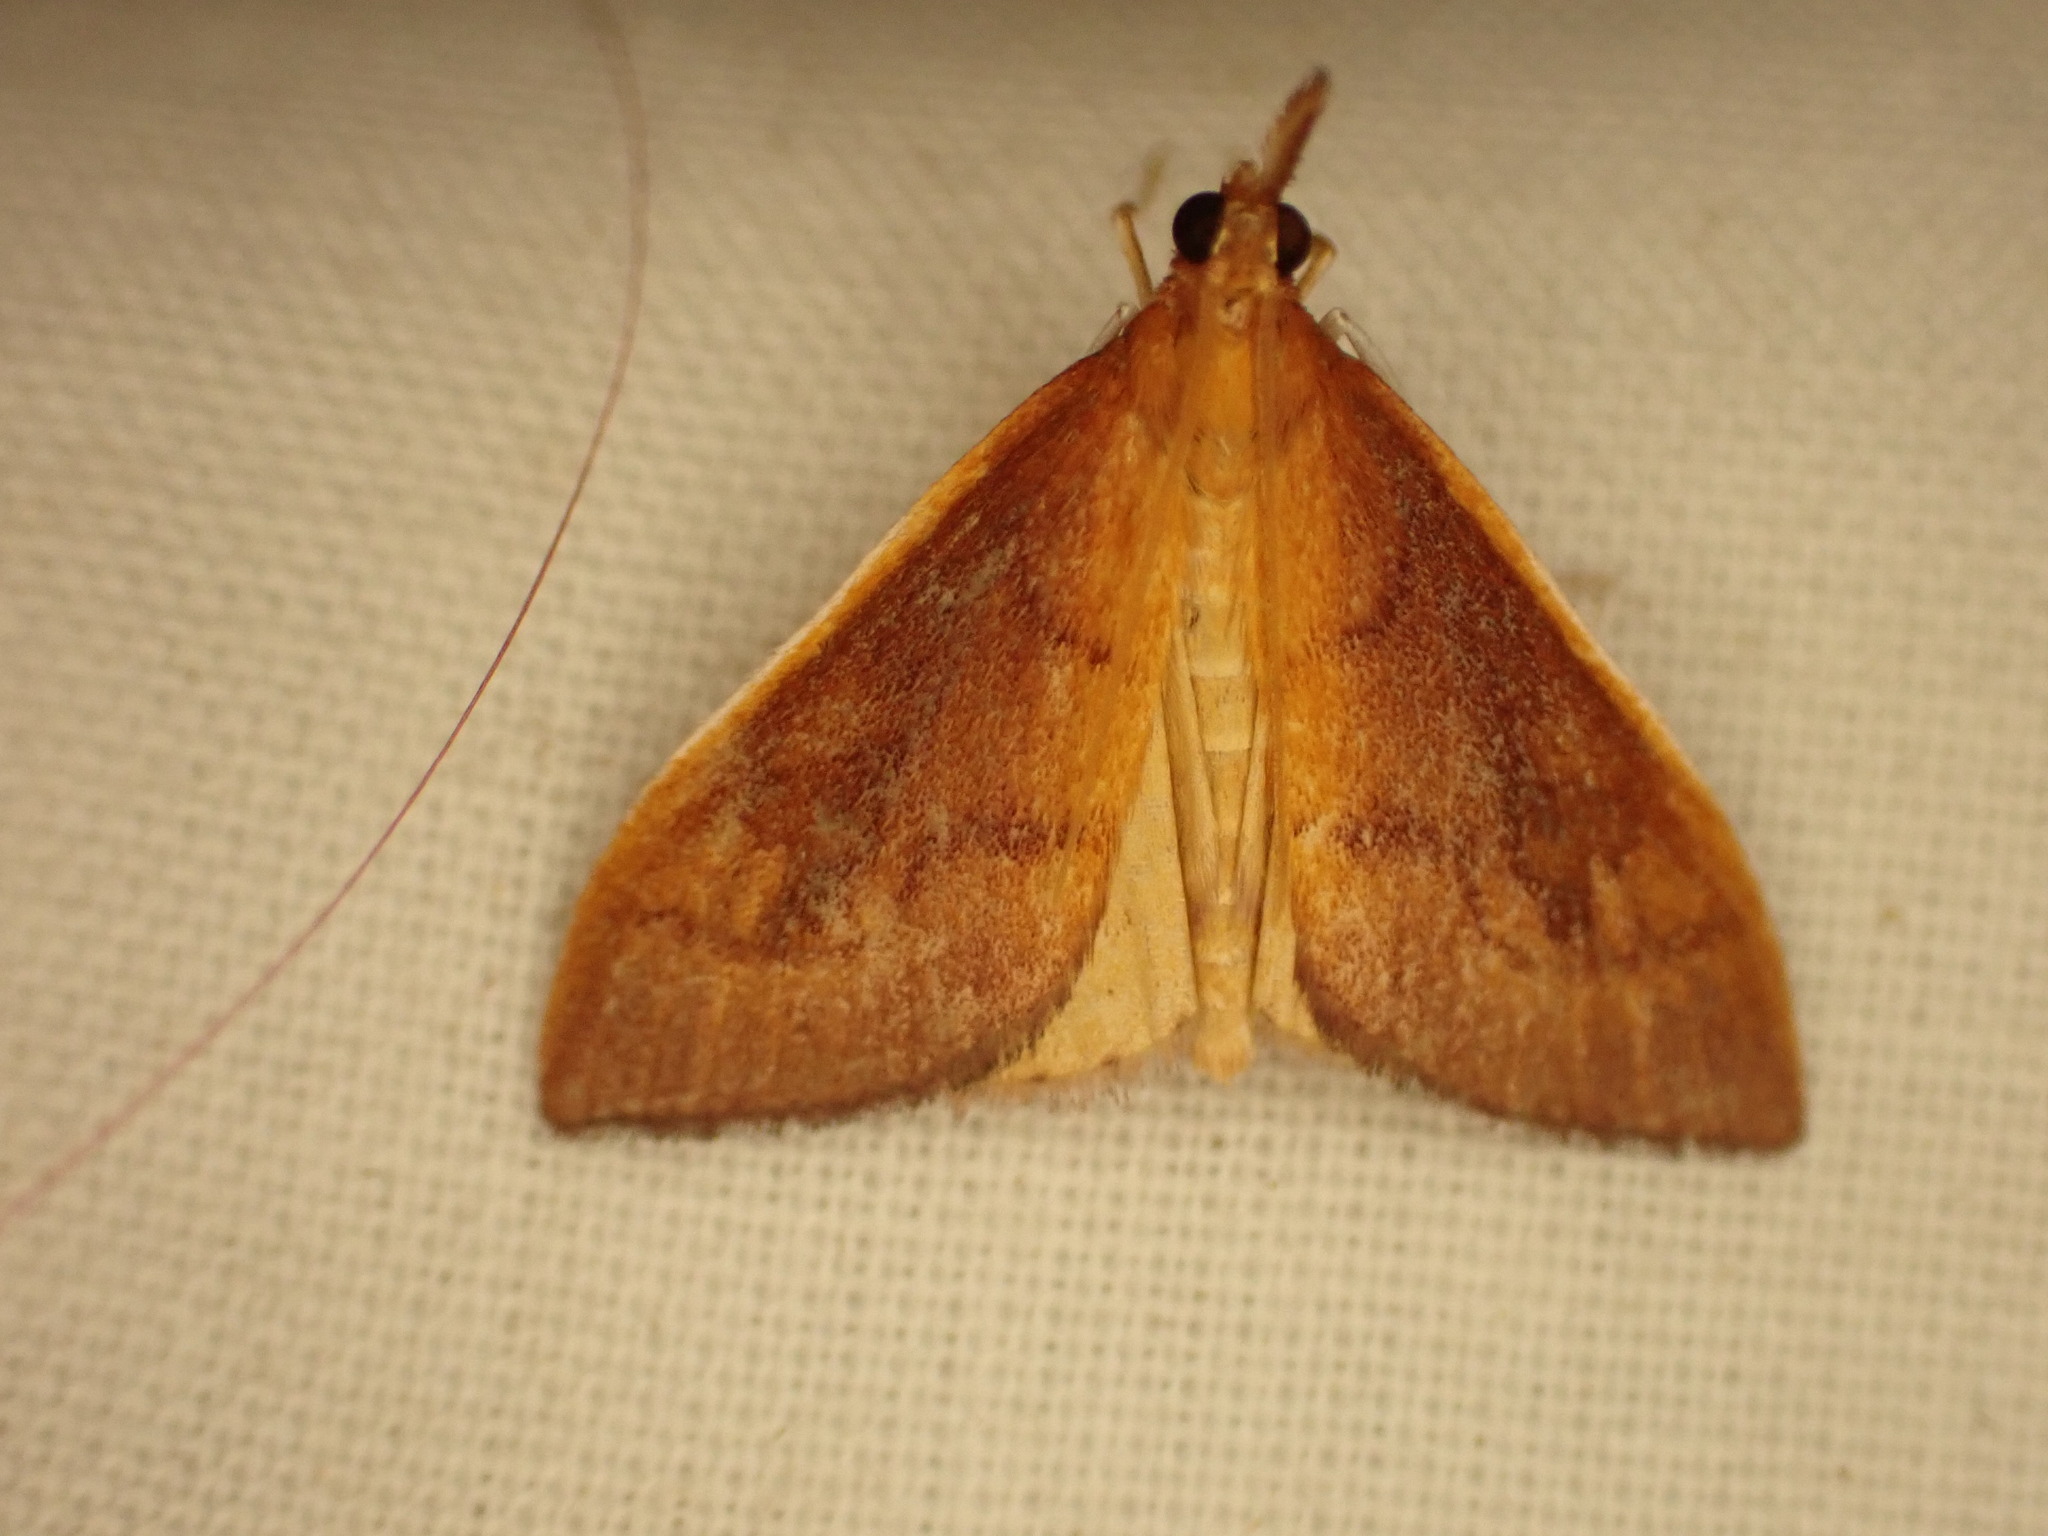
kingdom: Animalia
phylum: Arthropoda
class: Insecta
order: Lepidoptera
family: Crambidae
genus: Udea
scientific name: Udea Mnesictena flavidalis
